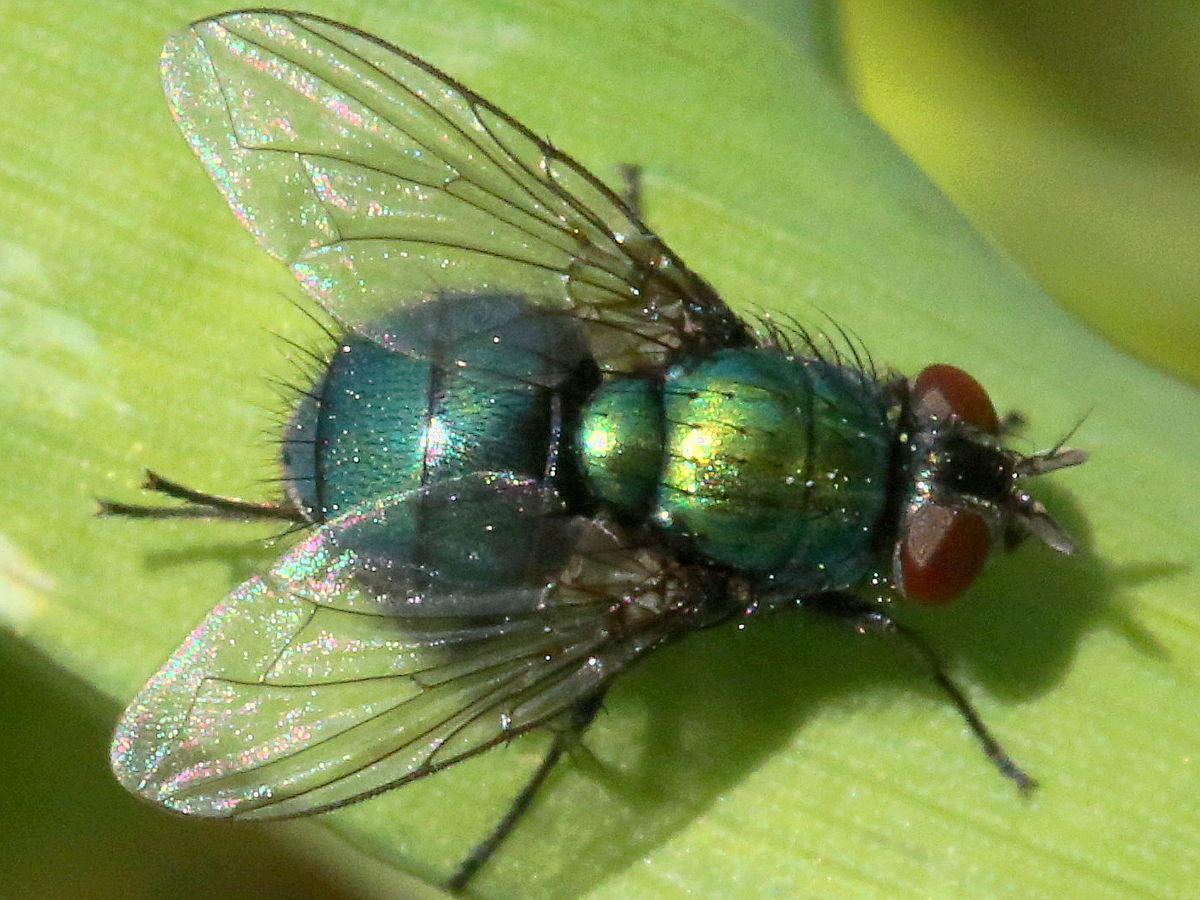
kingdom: Animalia
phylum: Arthropoda
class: Insecta
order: Diptera
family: Calliphoridae
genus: Lucilia
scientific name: Lucilia silvarum
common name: Marsh greenbottle
